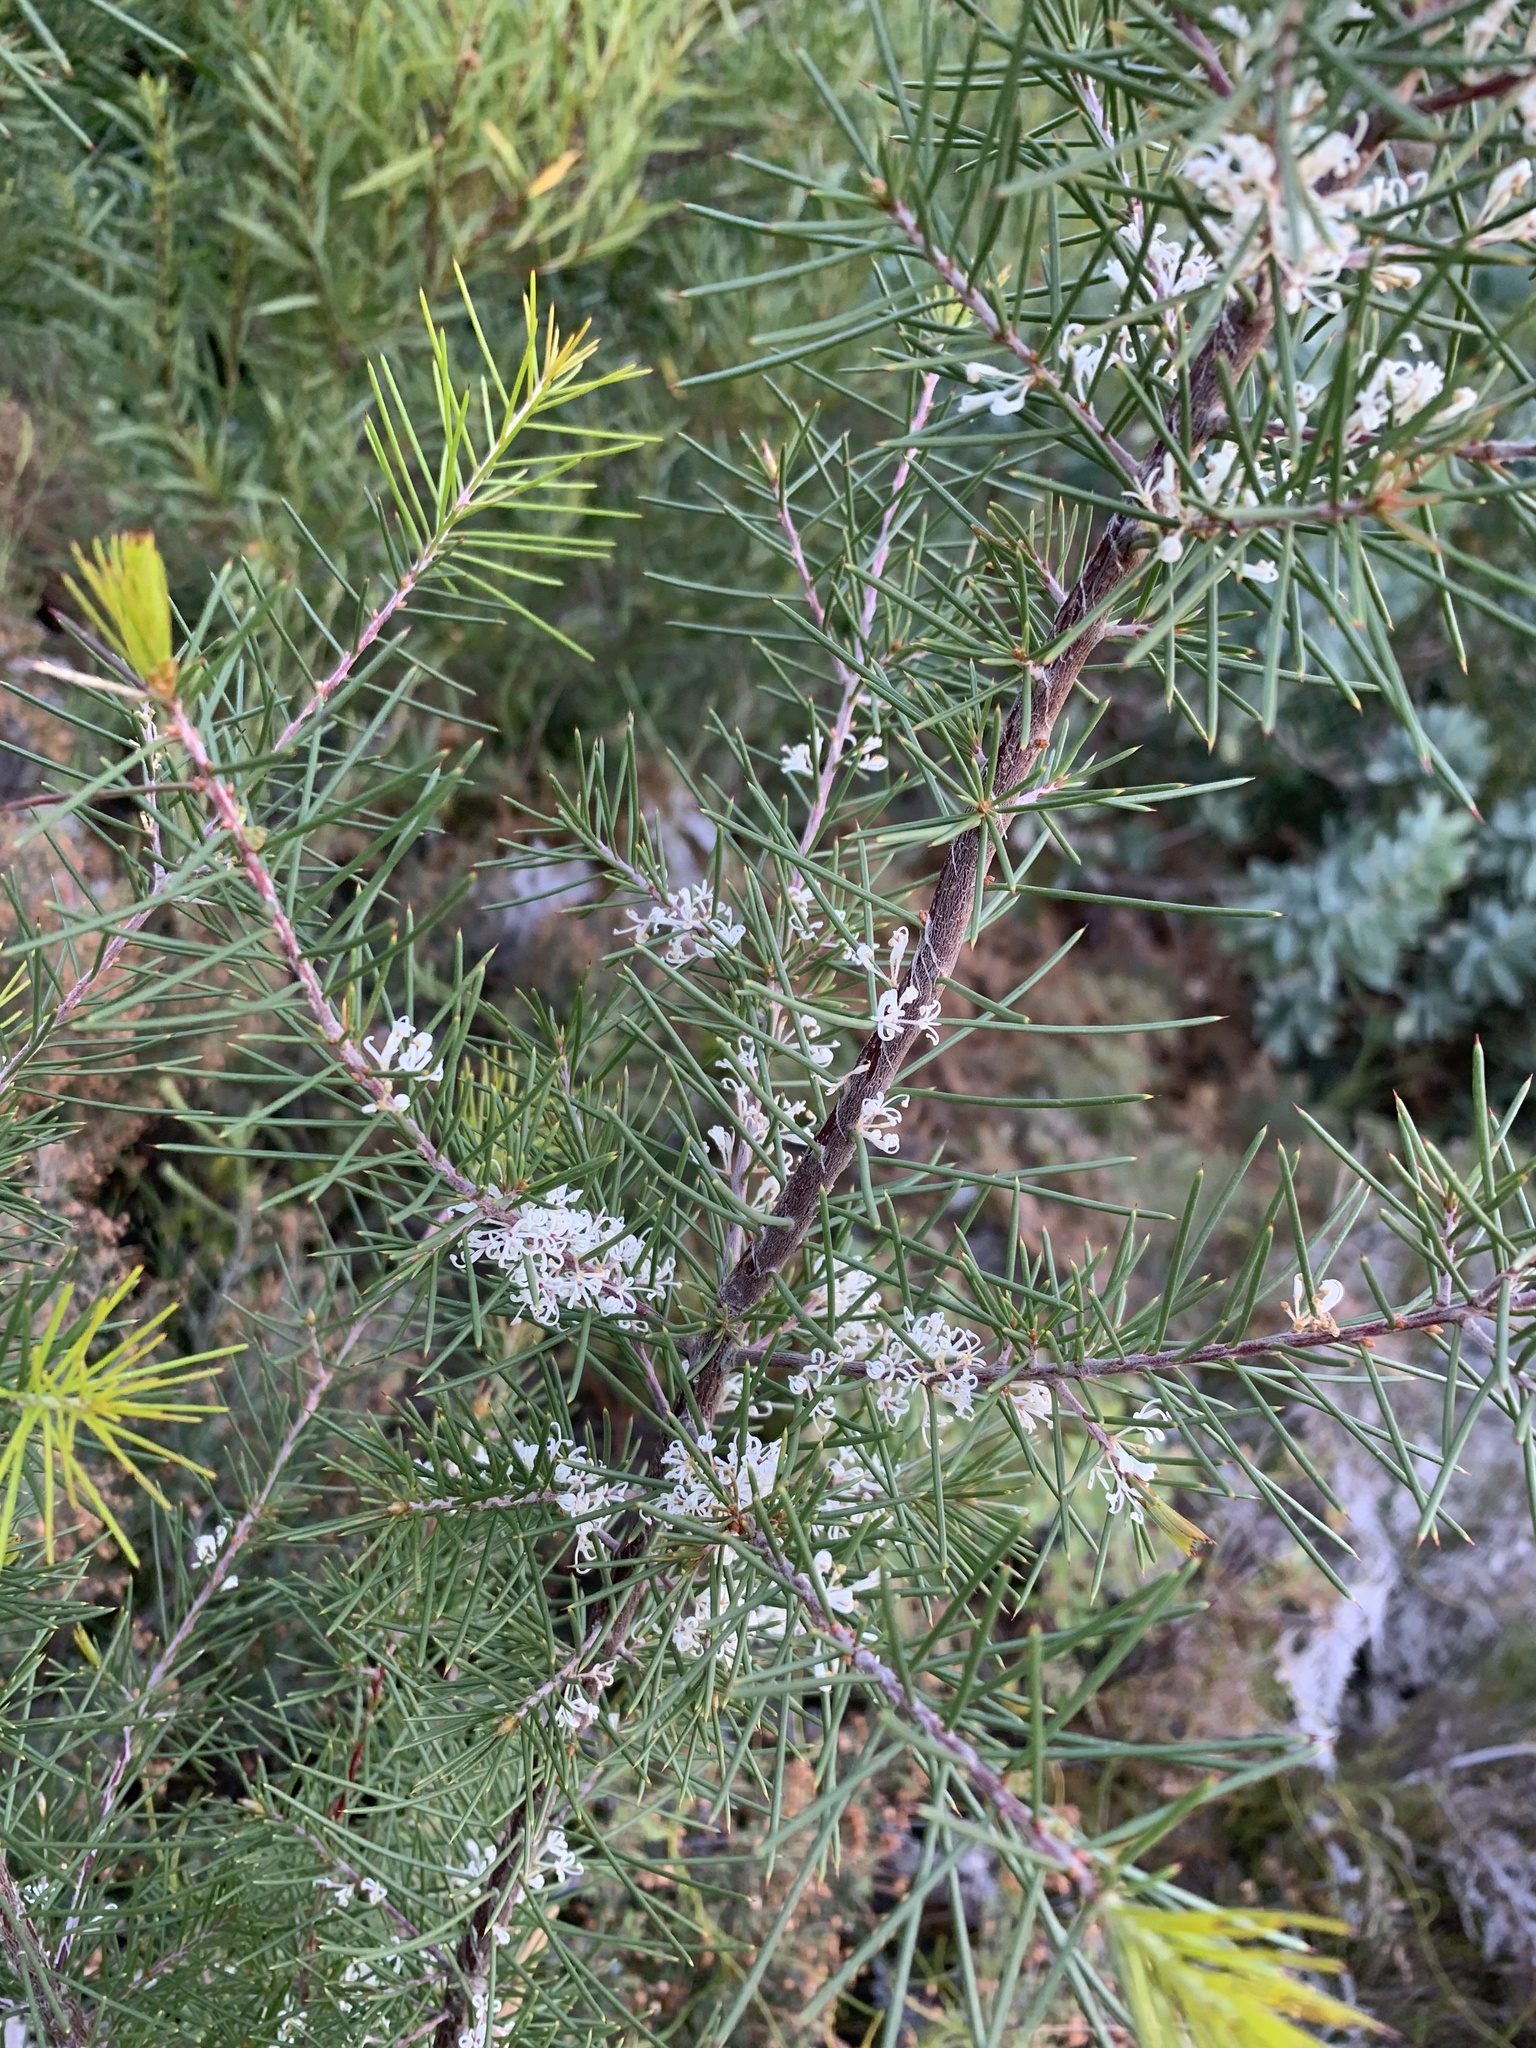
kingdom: Plantae
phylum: Tracheophyta
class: Magnoliopsida
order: Proteales
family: Proteaceae
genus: Hakea
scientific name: Hakea sericea
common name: Needle bush
